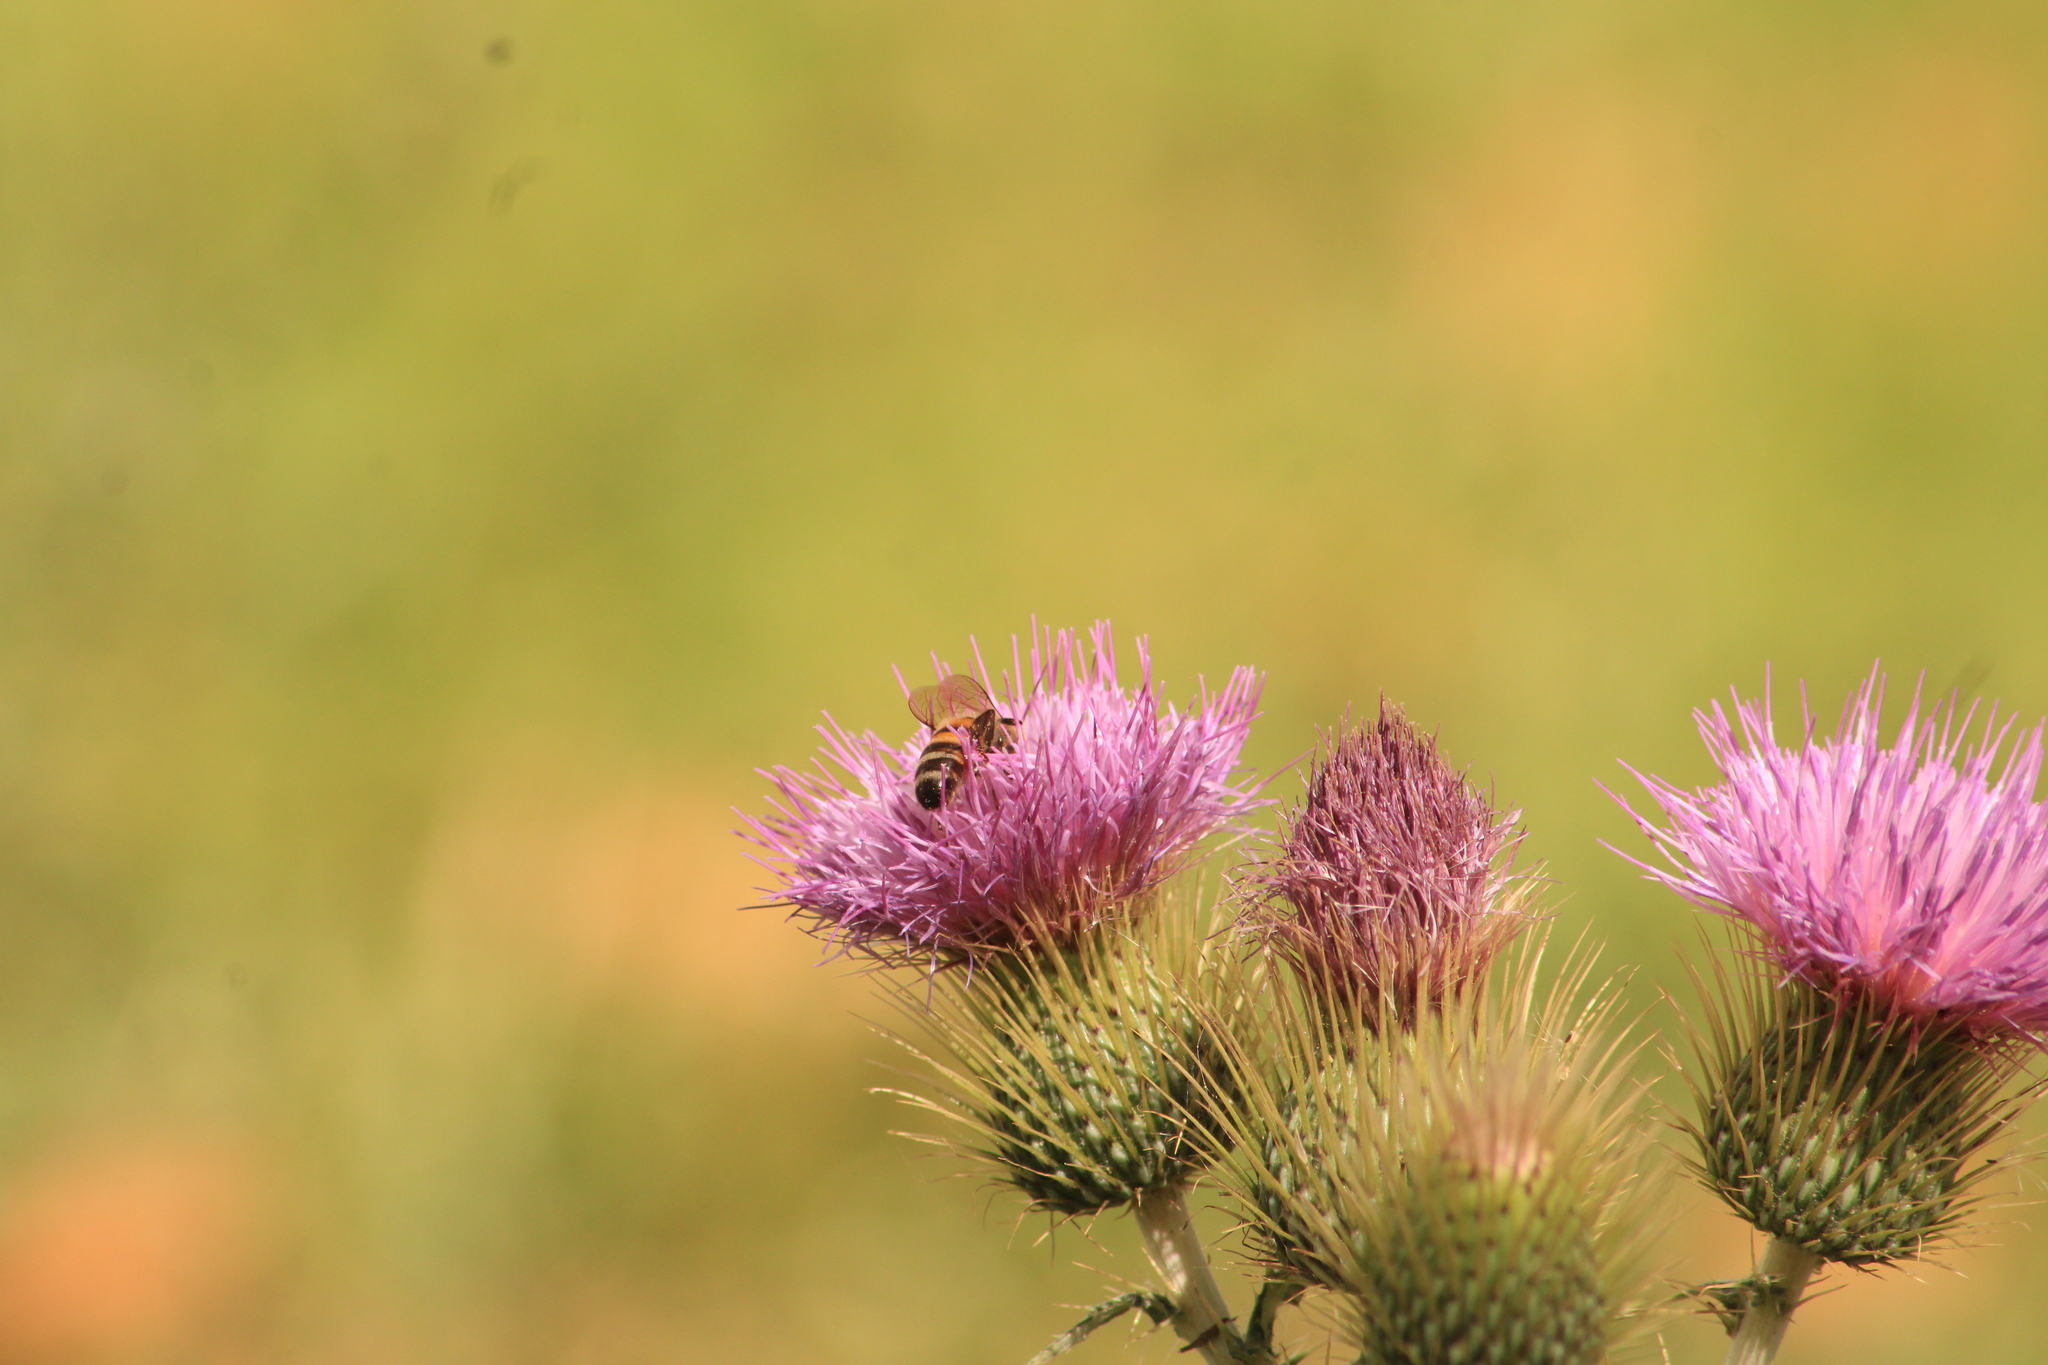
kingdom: Animalia
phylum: Arthropoda
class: Insecta
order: Hymenoptera
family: Apidae
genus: Apis
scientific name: Apis mellifera
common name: Honey bee
